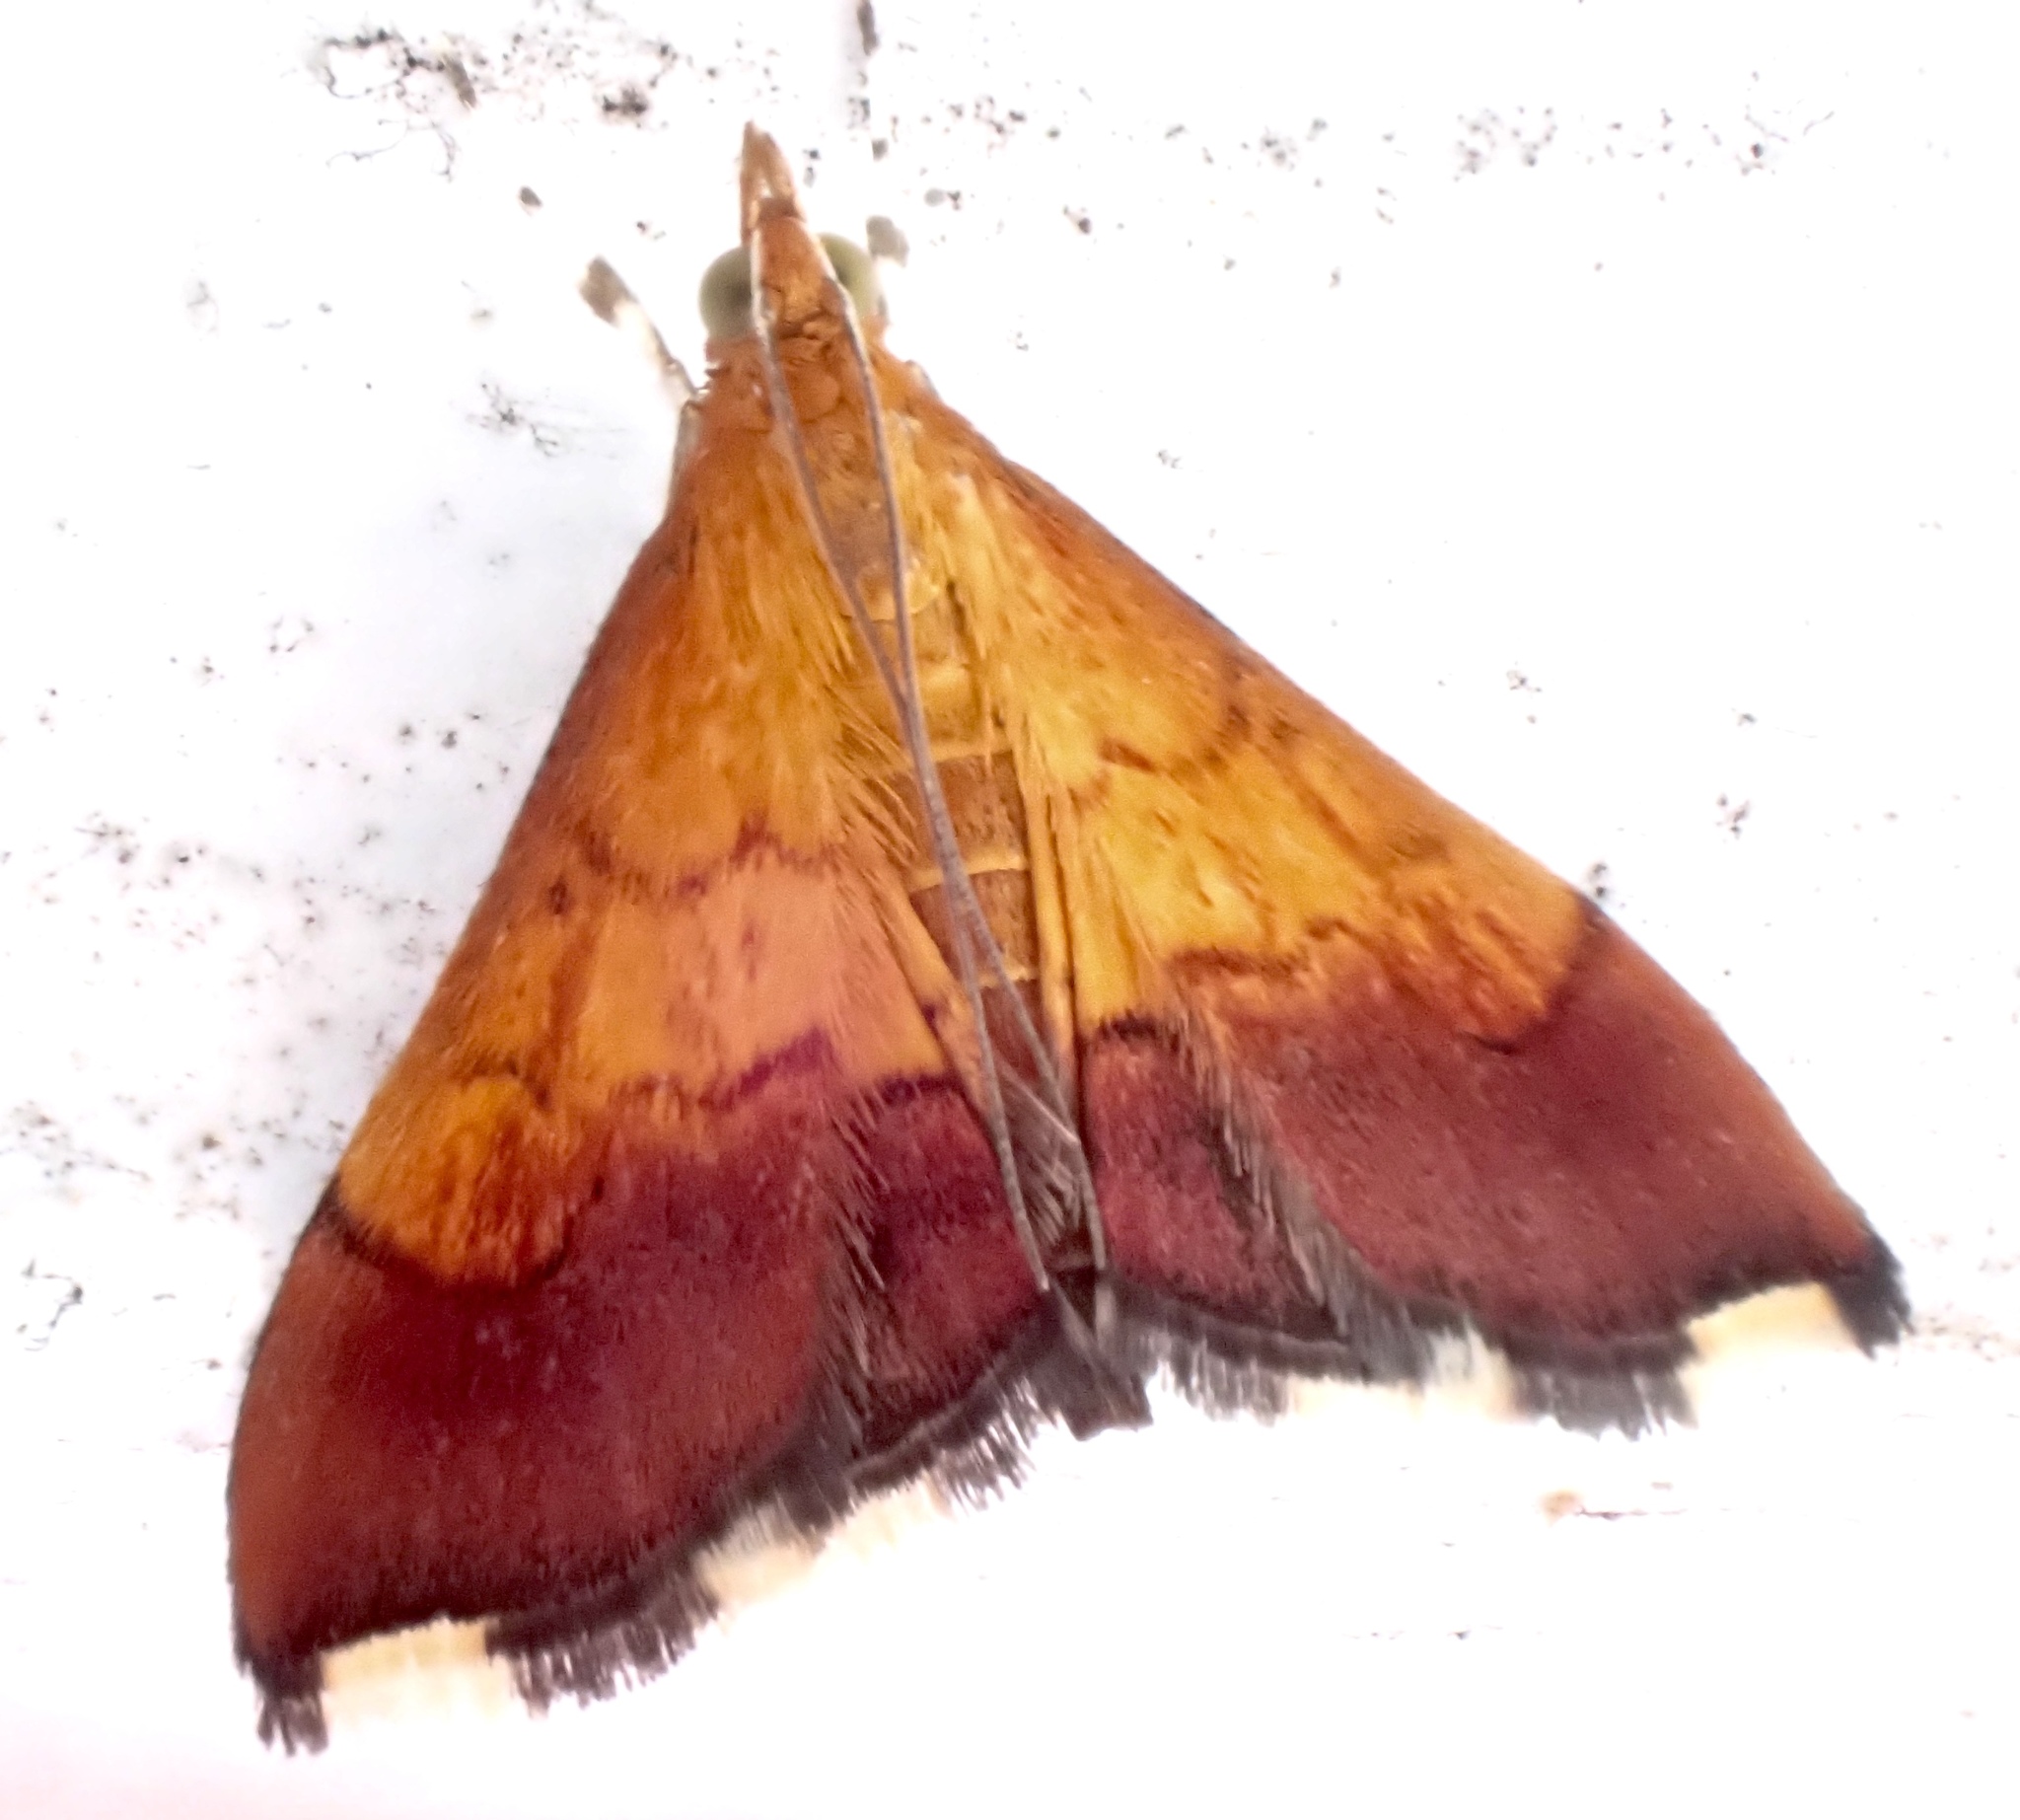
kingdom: Animalia
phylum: Arthropoda
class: Insecta
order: Lepidoptera
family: Crambidae
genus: Pyrausta
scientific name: Pyrausta bicoloralis
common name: Bicolored pyrausta moth
